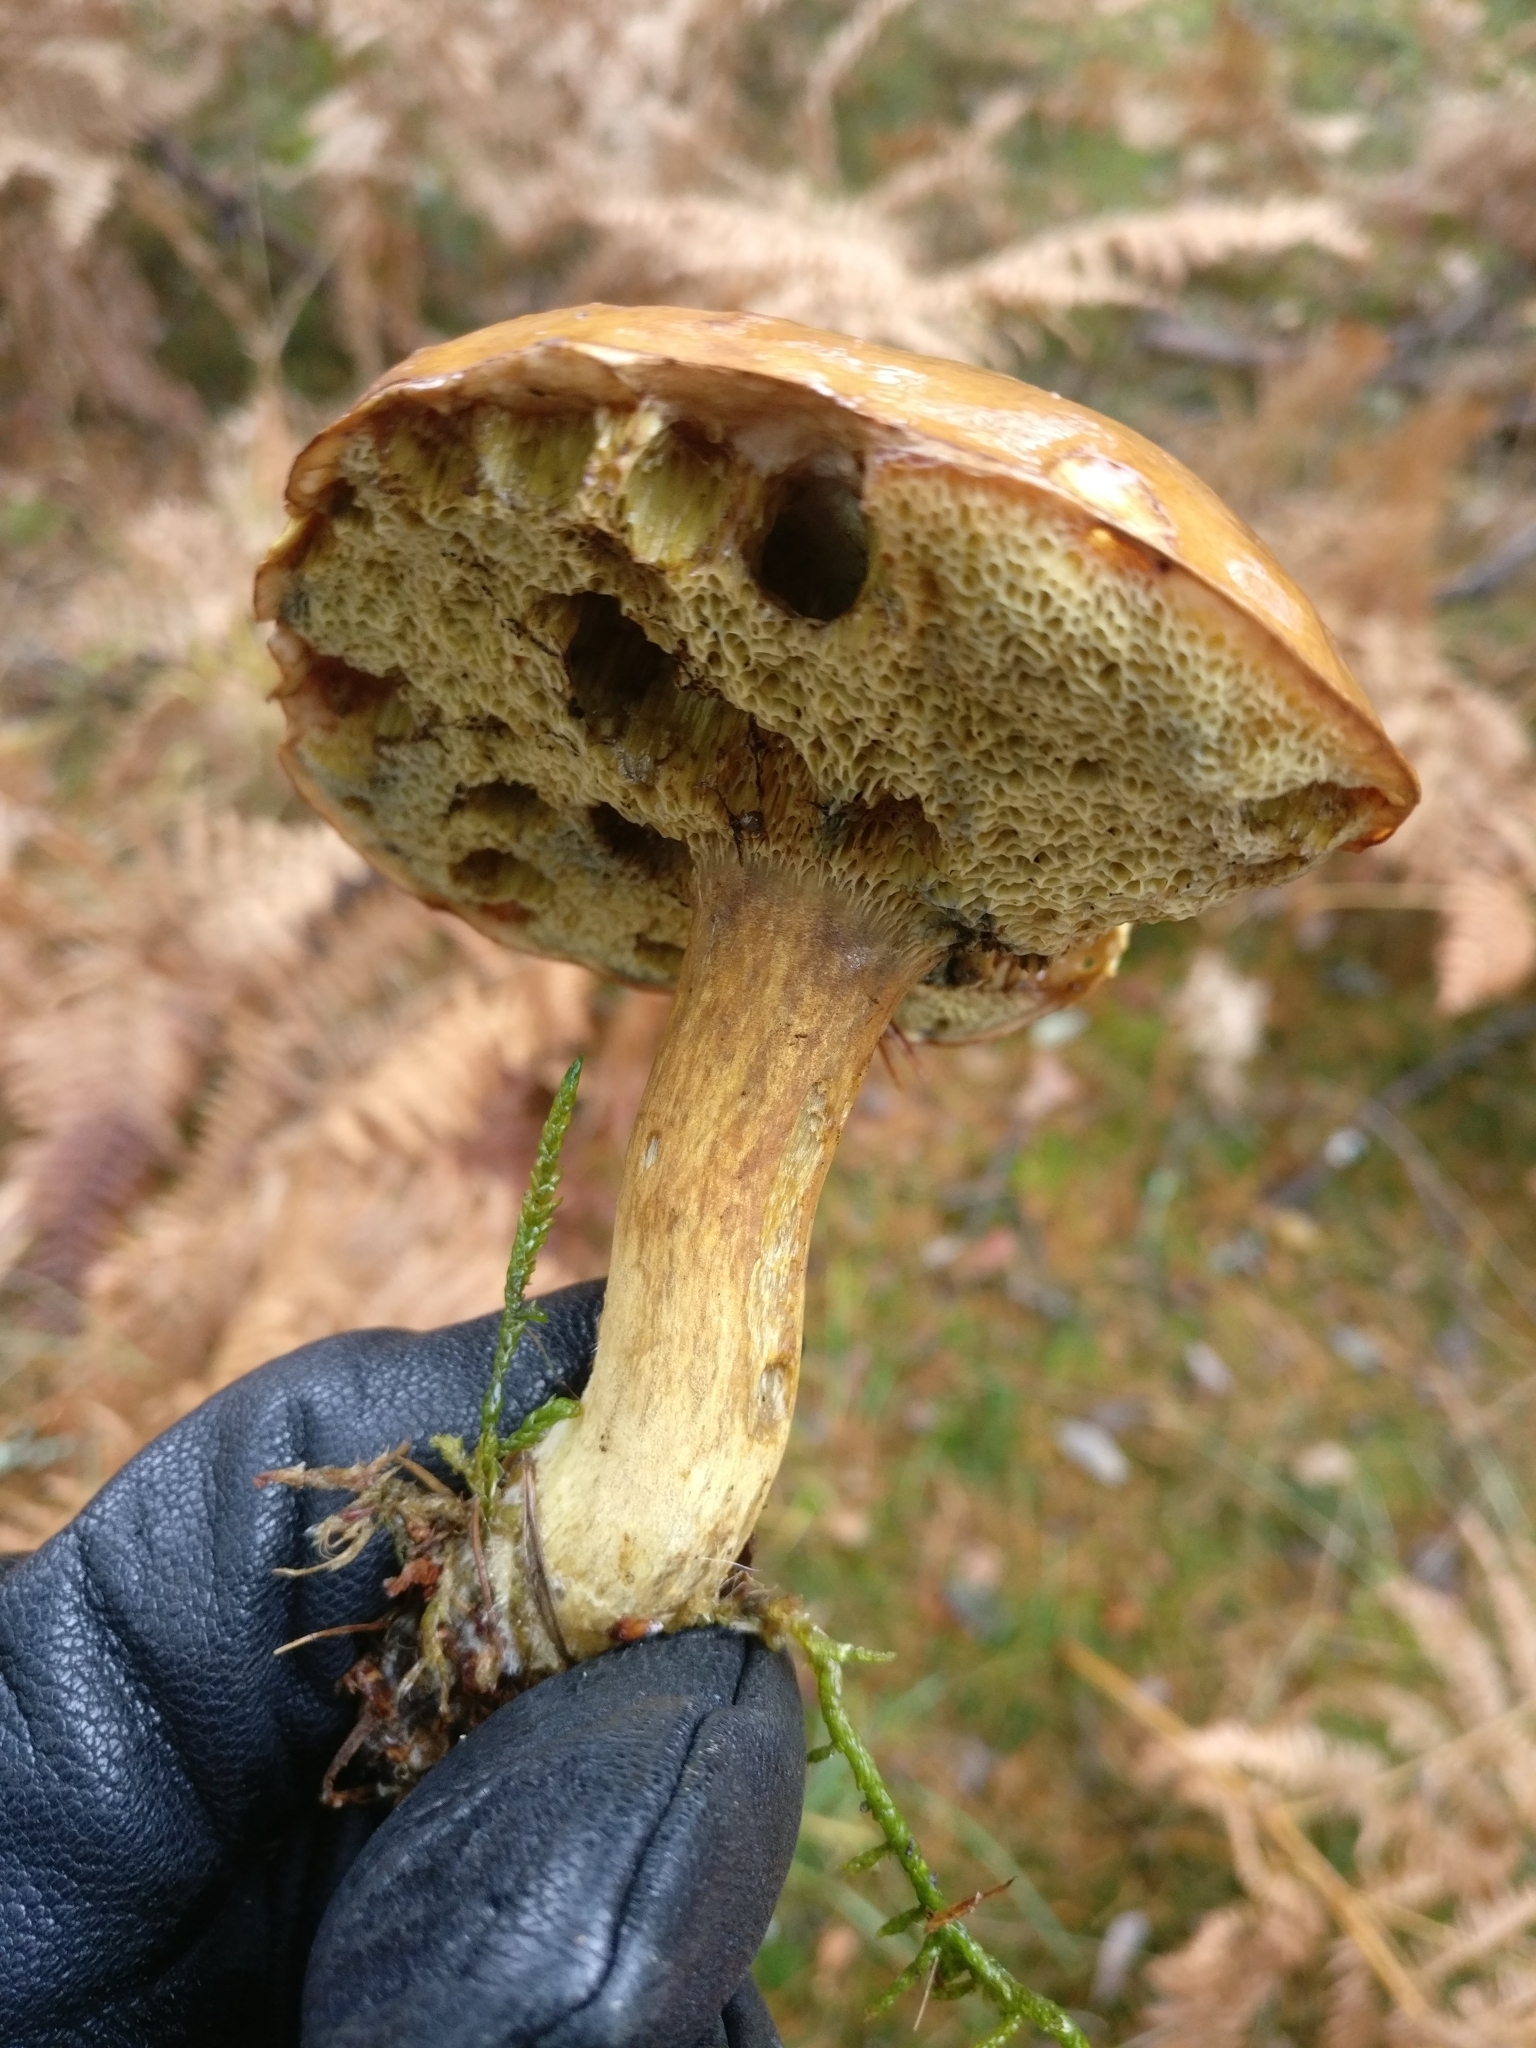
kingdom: Fungi
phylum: Basidiomycota
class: Agaricomycetes
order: Boletales
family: Boletaceae
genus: Imleria
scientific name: Imleria badia
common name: Bay bolete
